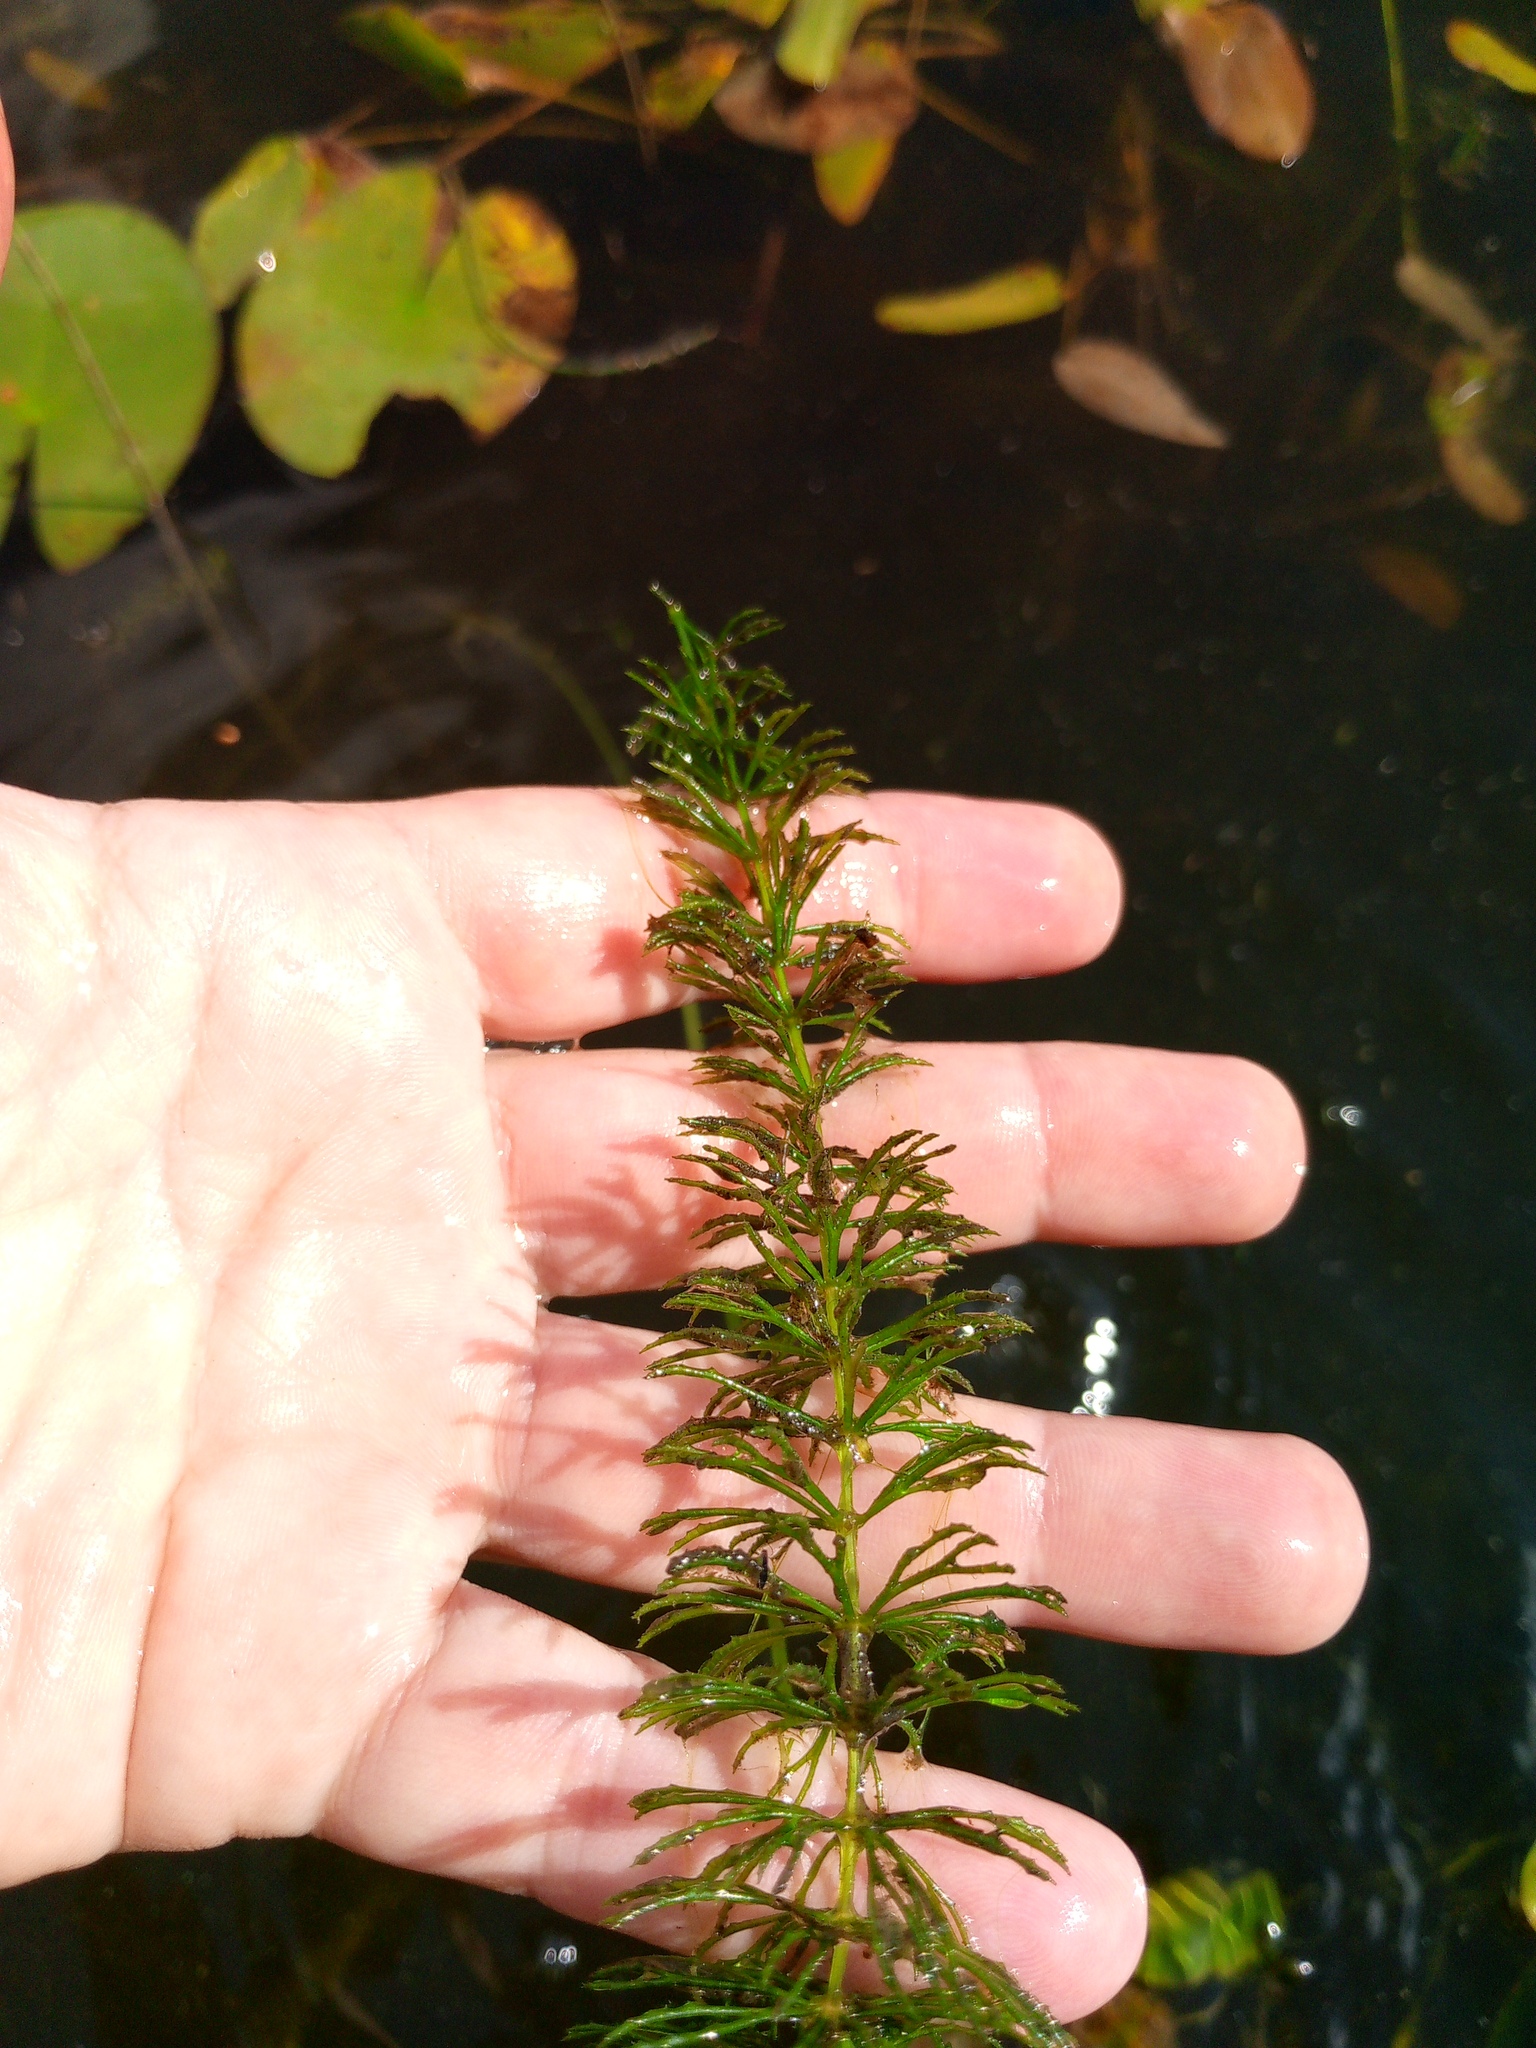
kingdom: Plantae
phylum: Tracheophyta
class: Magnoliopsida
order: Ceratophyllales
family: Ceratophyllaceae
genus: Ceratophyllum
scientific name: Ceratophyllum demersum
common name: Rigid hornwort
